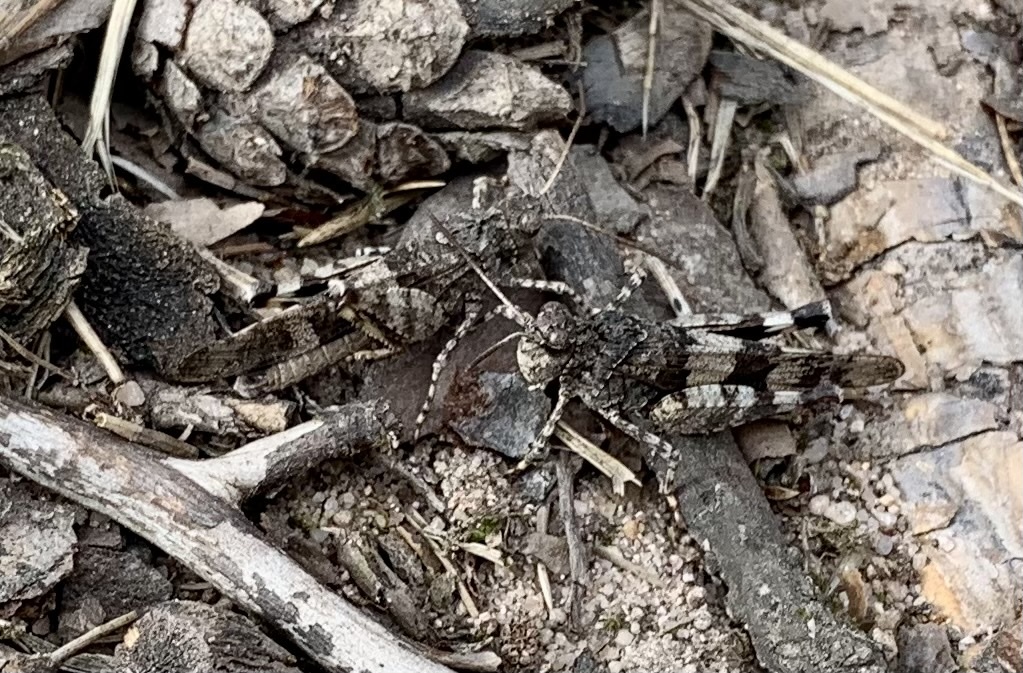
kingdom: Animalia
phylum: Arthropoda
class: Insecta
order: Orthoptera
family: Acrididae
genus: Oedipoda
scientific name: Oedipoda caerulescens
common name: Blue-winged grasshopper
